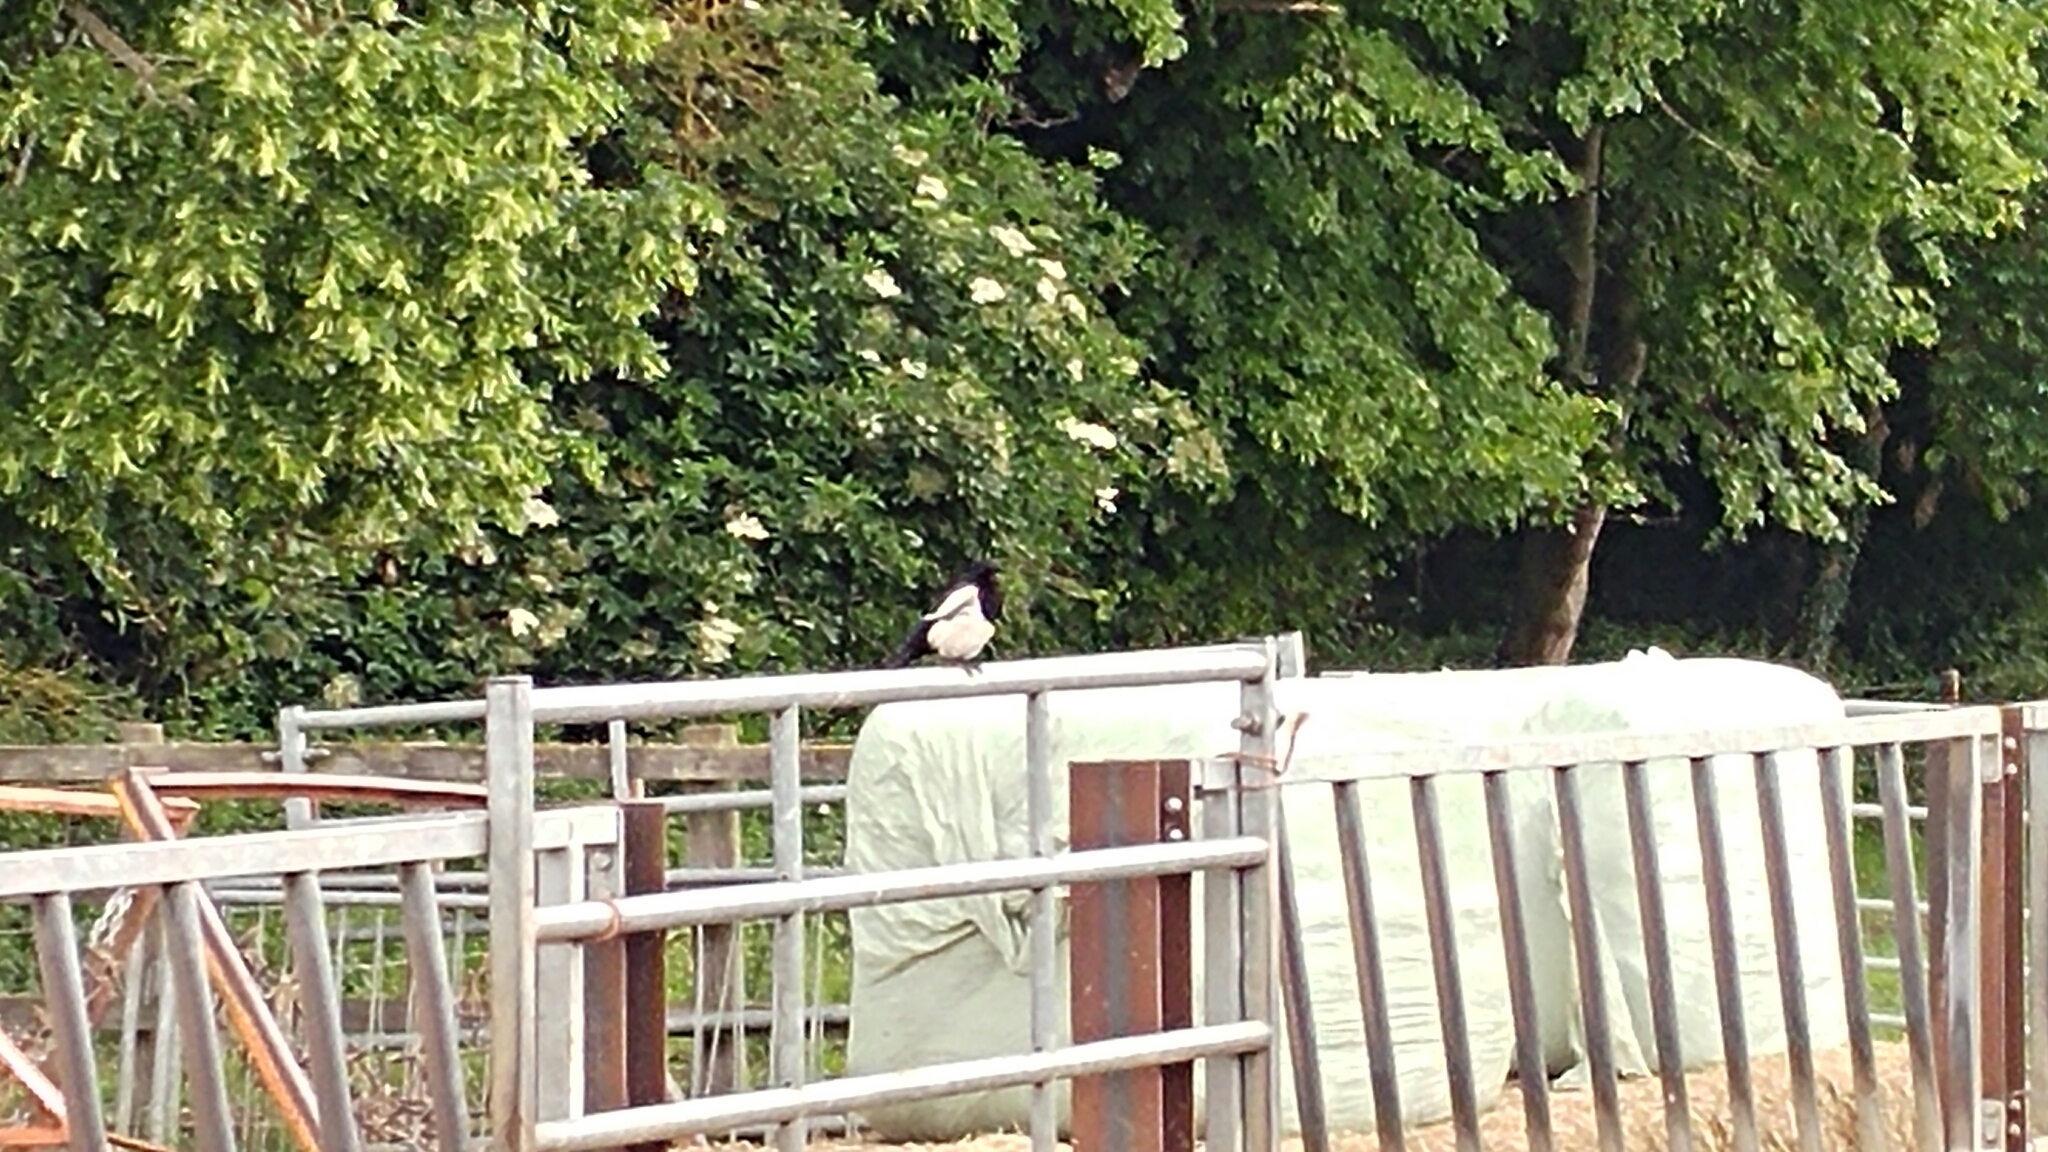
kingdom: Animalia
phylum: Chordata
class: Aves
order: Passeriformes
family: Corvidae
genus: Pica
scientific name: Pica pica
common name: Eurasian magpie
